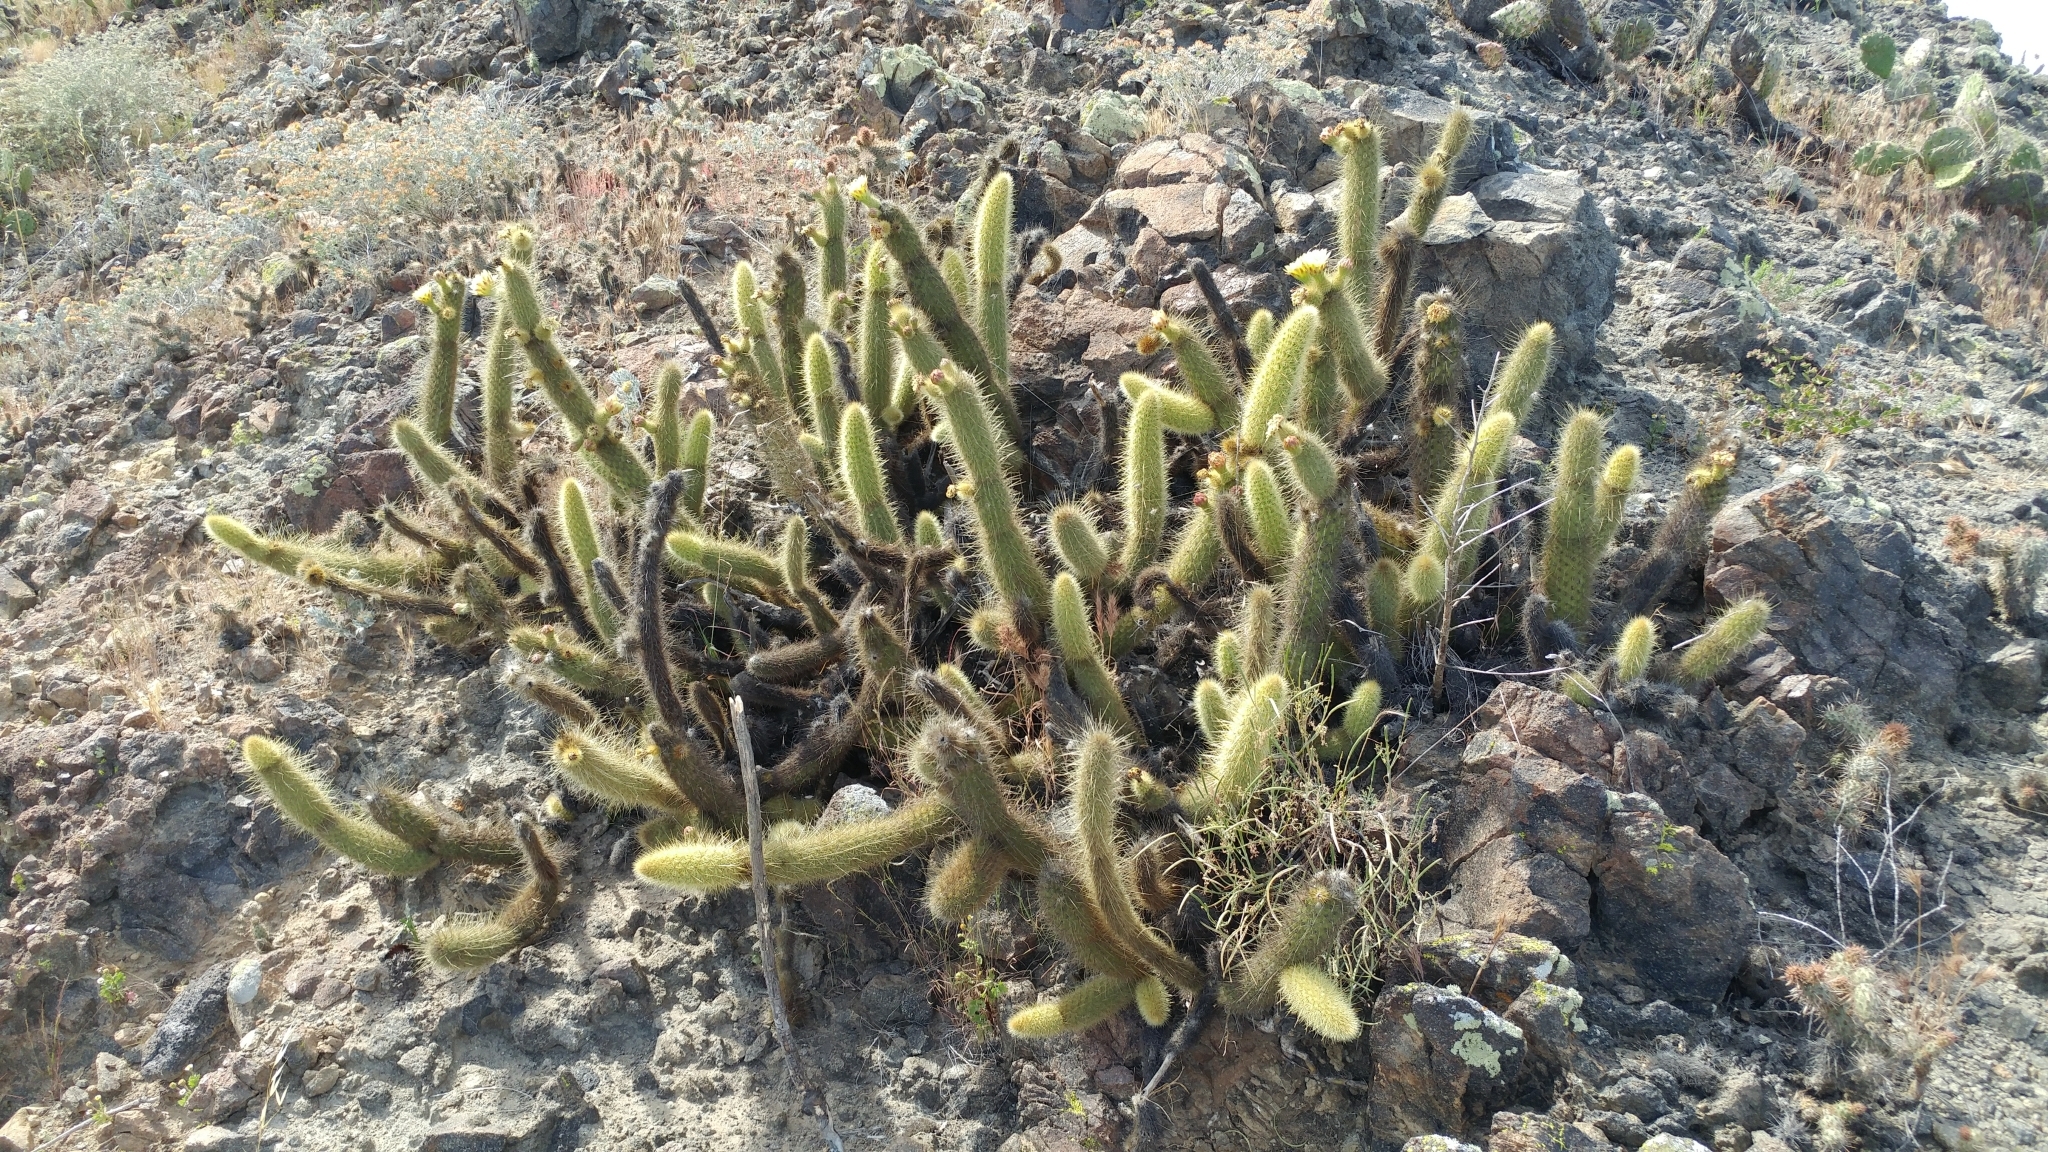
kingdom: Plantae
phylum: Tracheophyta
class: Magnoliopsida
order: Caryophyllales
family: Cactaceae
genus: Bergerocactus
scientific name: Bergerocactus emoryi
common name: Golden snakecactus
